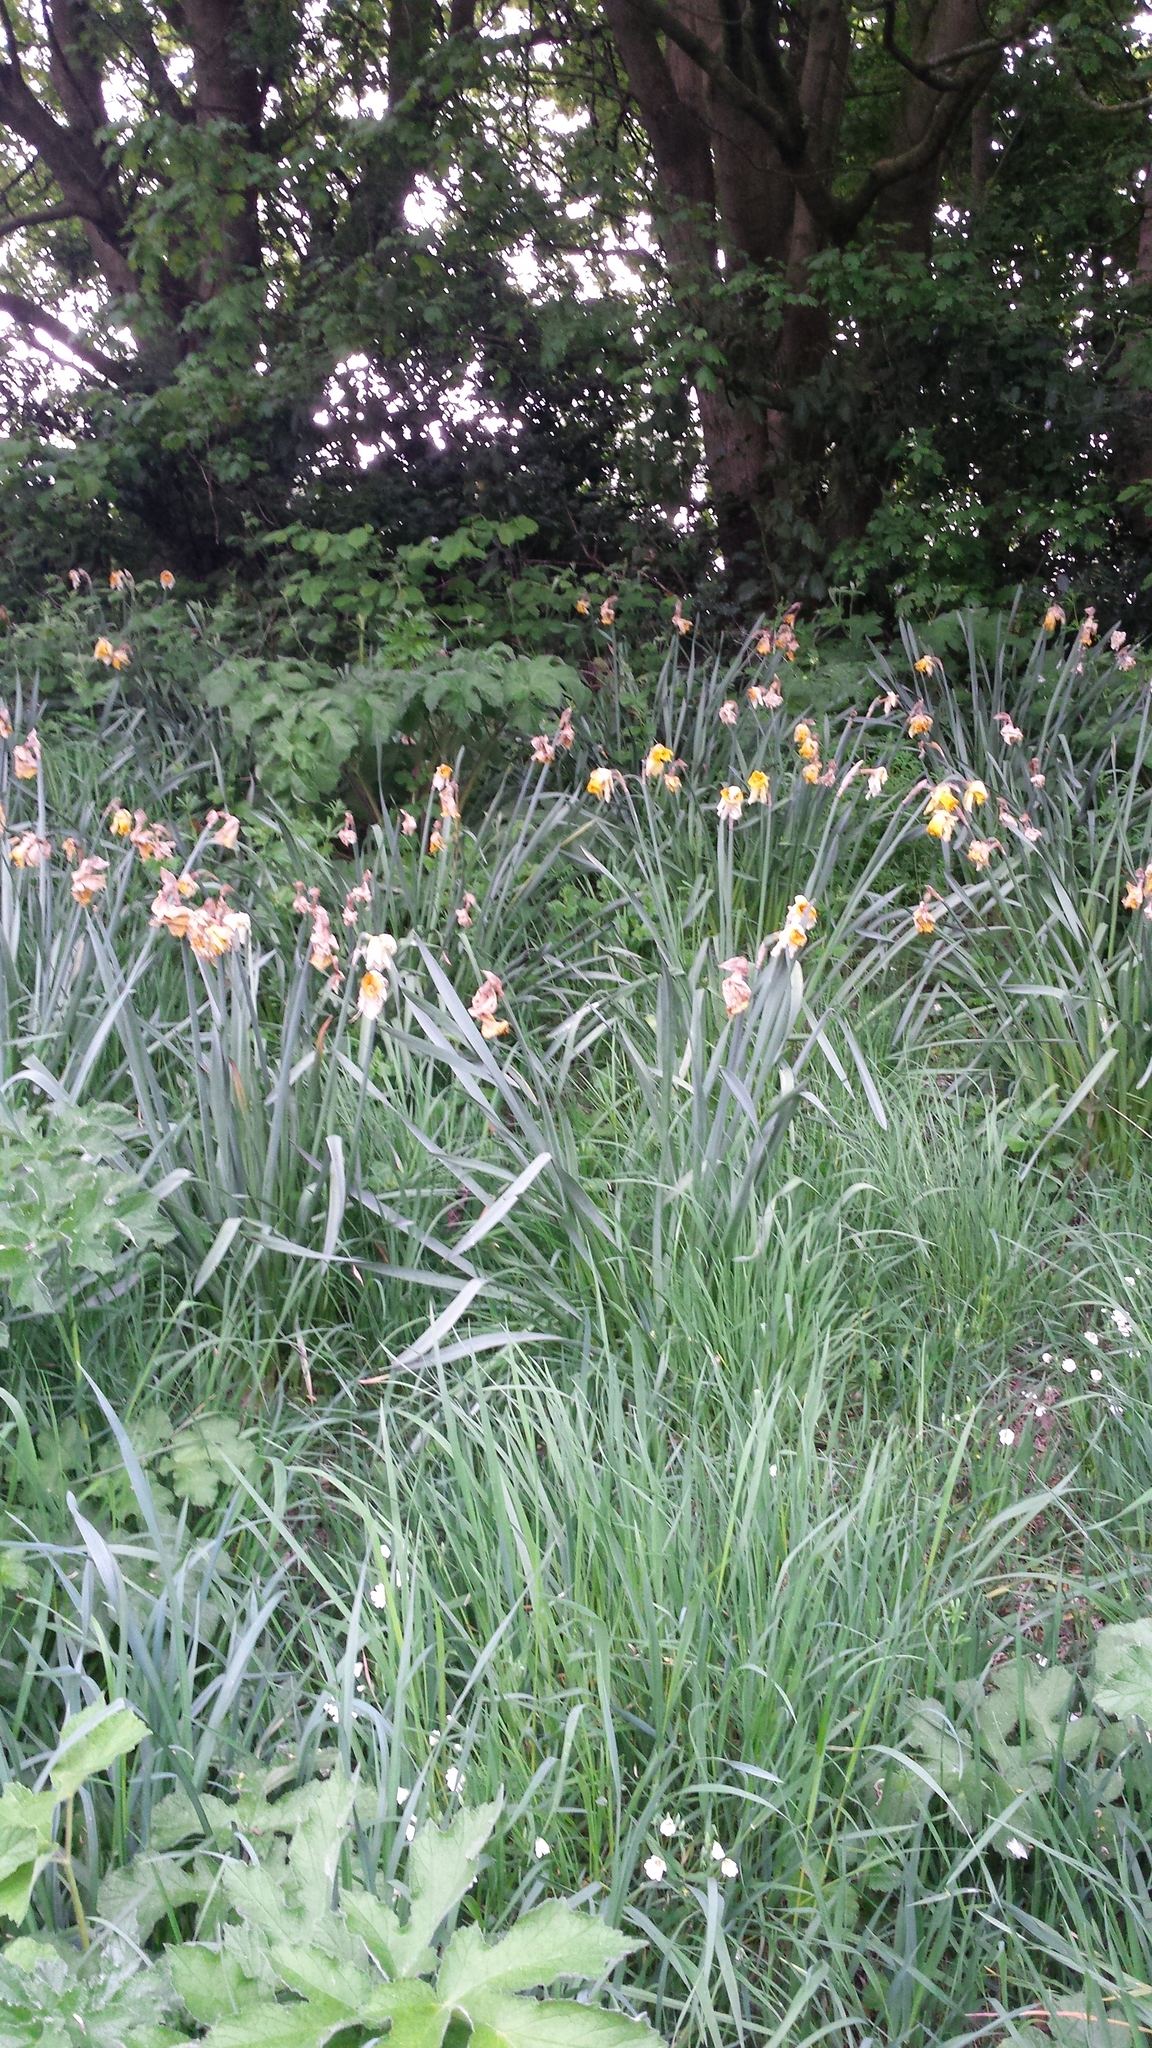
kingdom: Plantae
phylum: Tracheophyta
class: Liliopsida
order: Asparagales
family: Amaryllidaceae
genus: Narcissus
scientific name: Narcissus pseudonarcissus
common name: Daffodil
